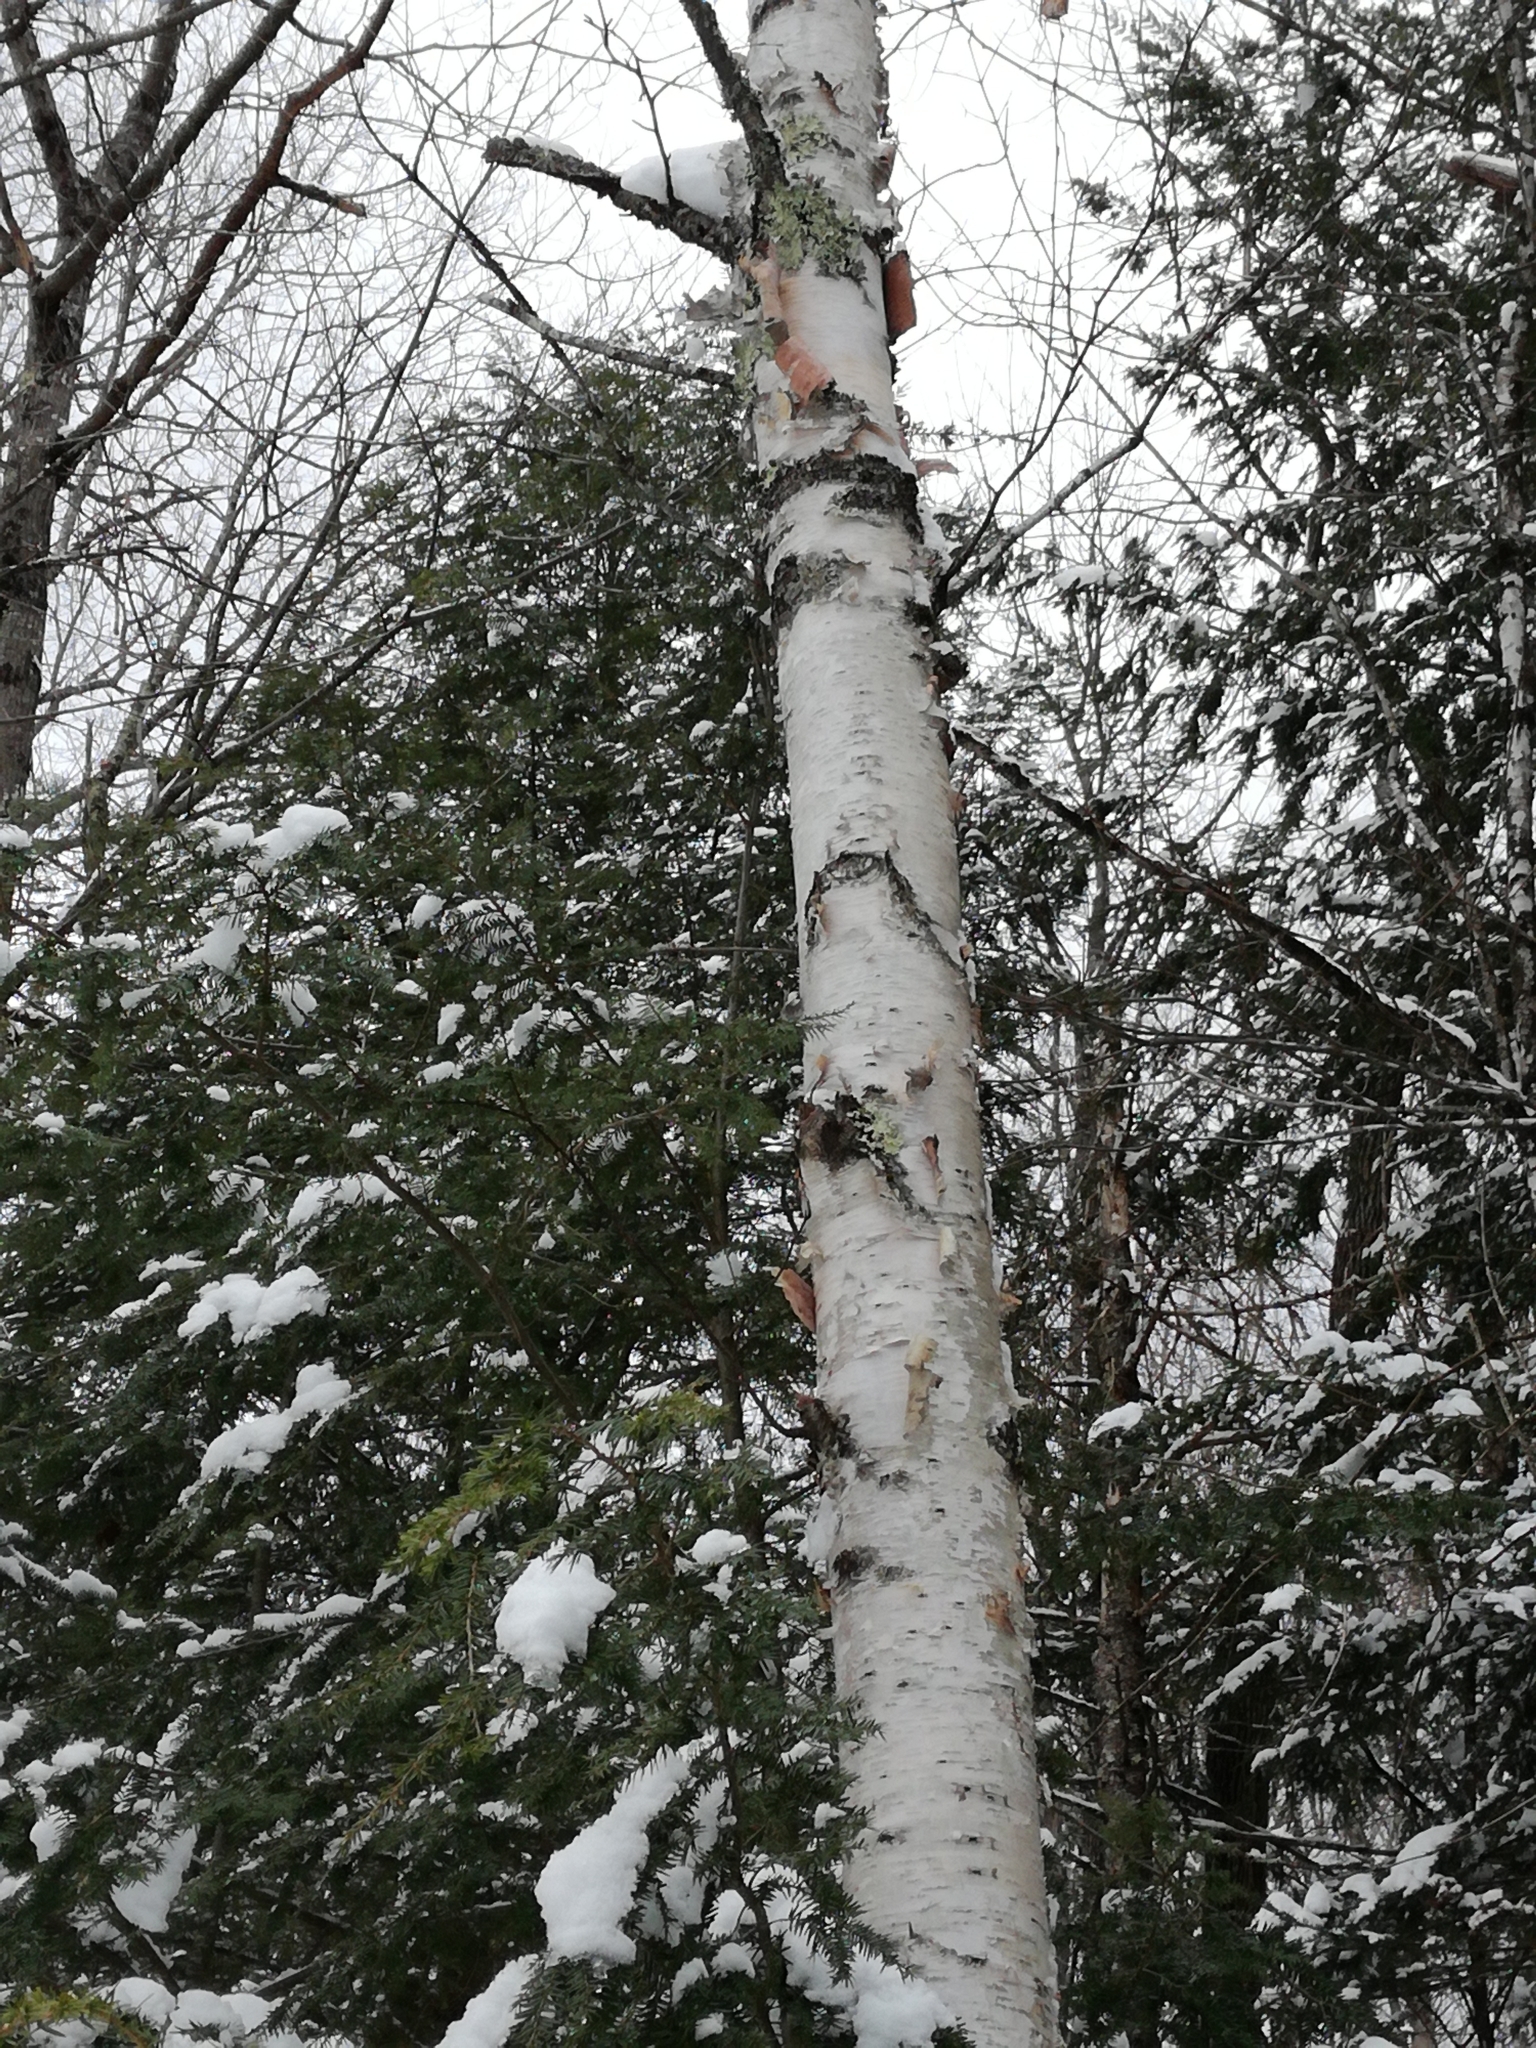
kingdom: Plantae
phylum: Tracheophyta
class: Magnoliopsida
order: Fagales
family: Betulaceae
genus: Betula
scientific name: Betula papyrifera
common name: Paper birch
